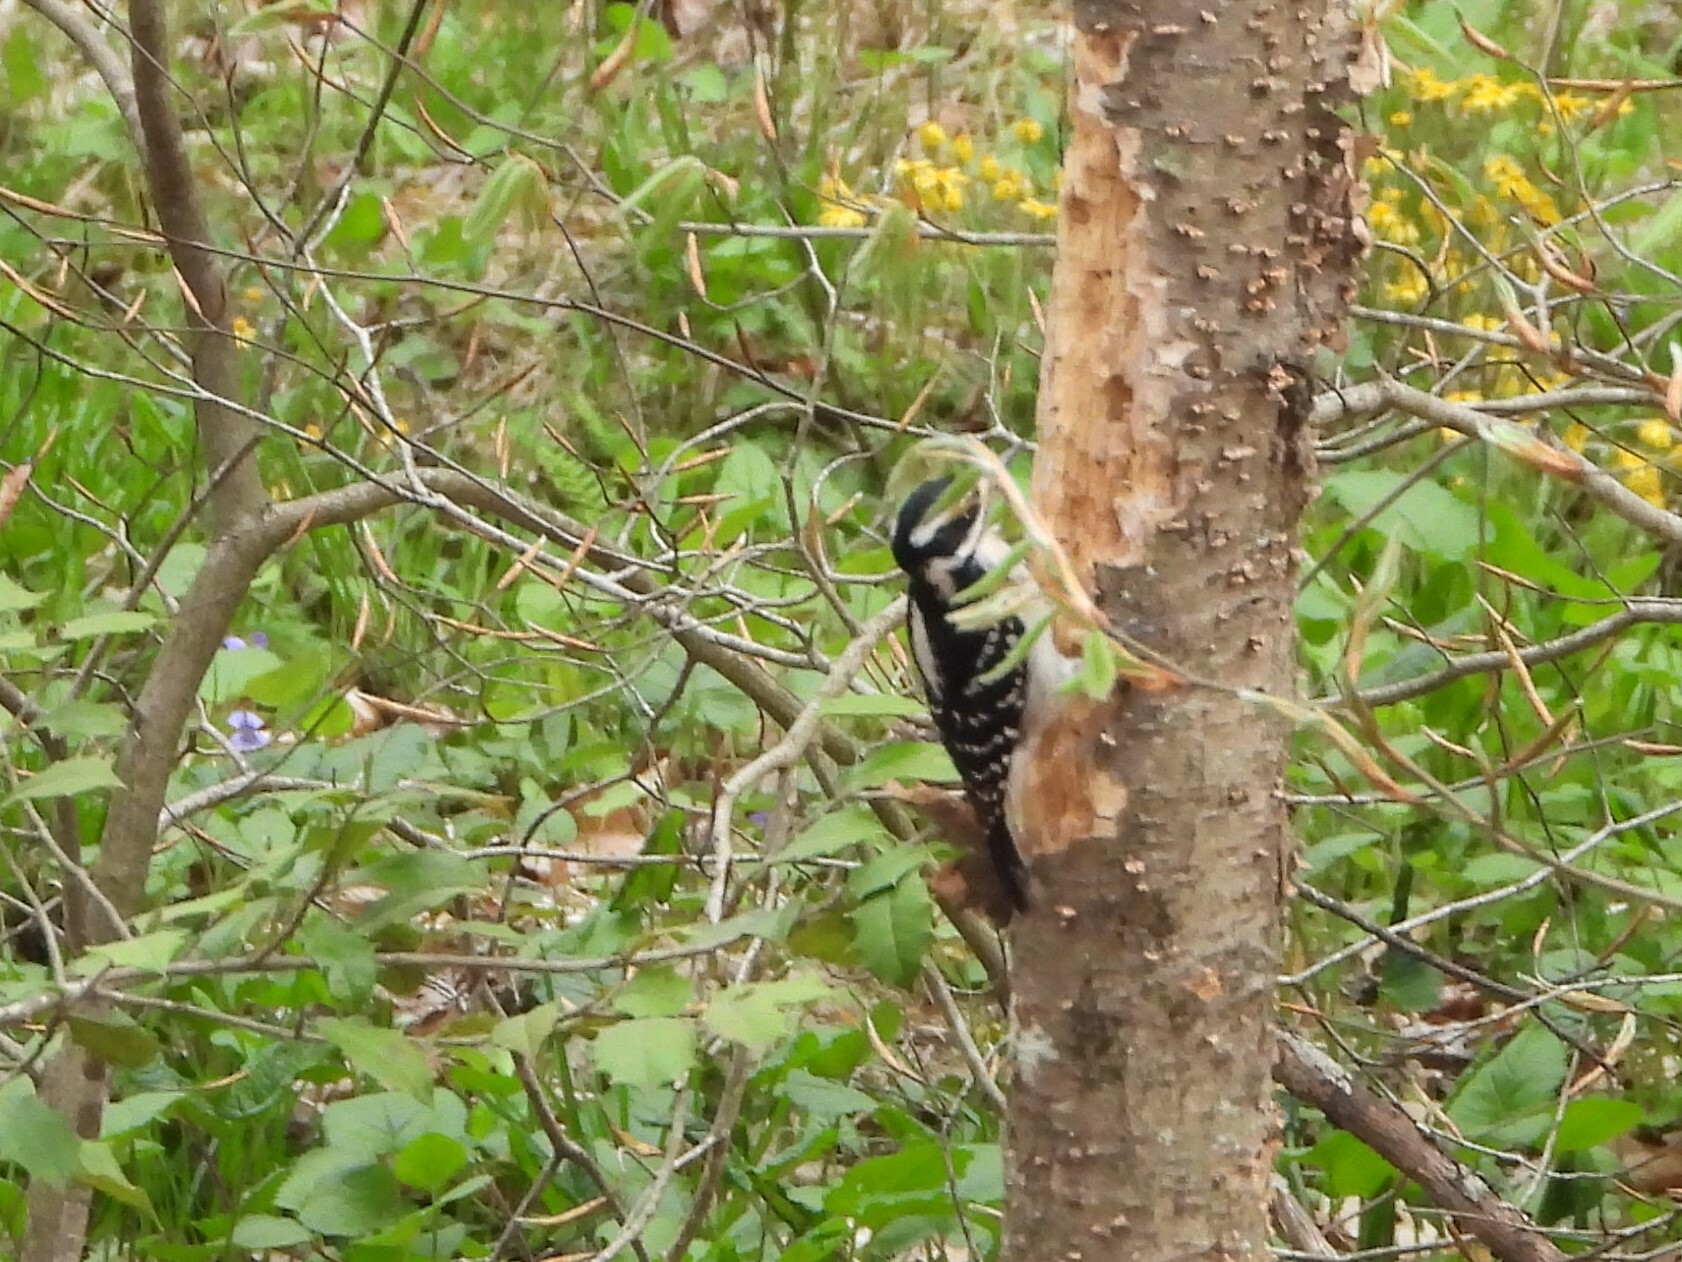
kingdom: Animalia
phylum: Chordata
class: Aves
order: Piciformes
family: Picidae
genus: Leuconotopicus
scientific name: Leuconotopicus villosus
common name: Hairy woodpecker
